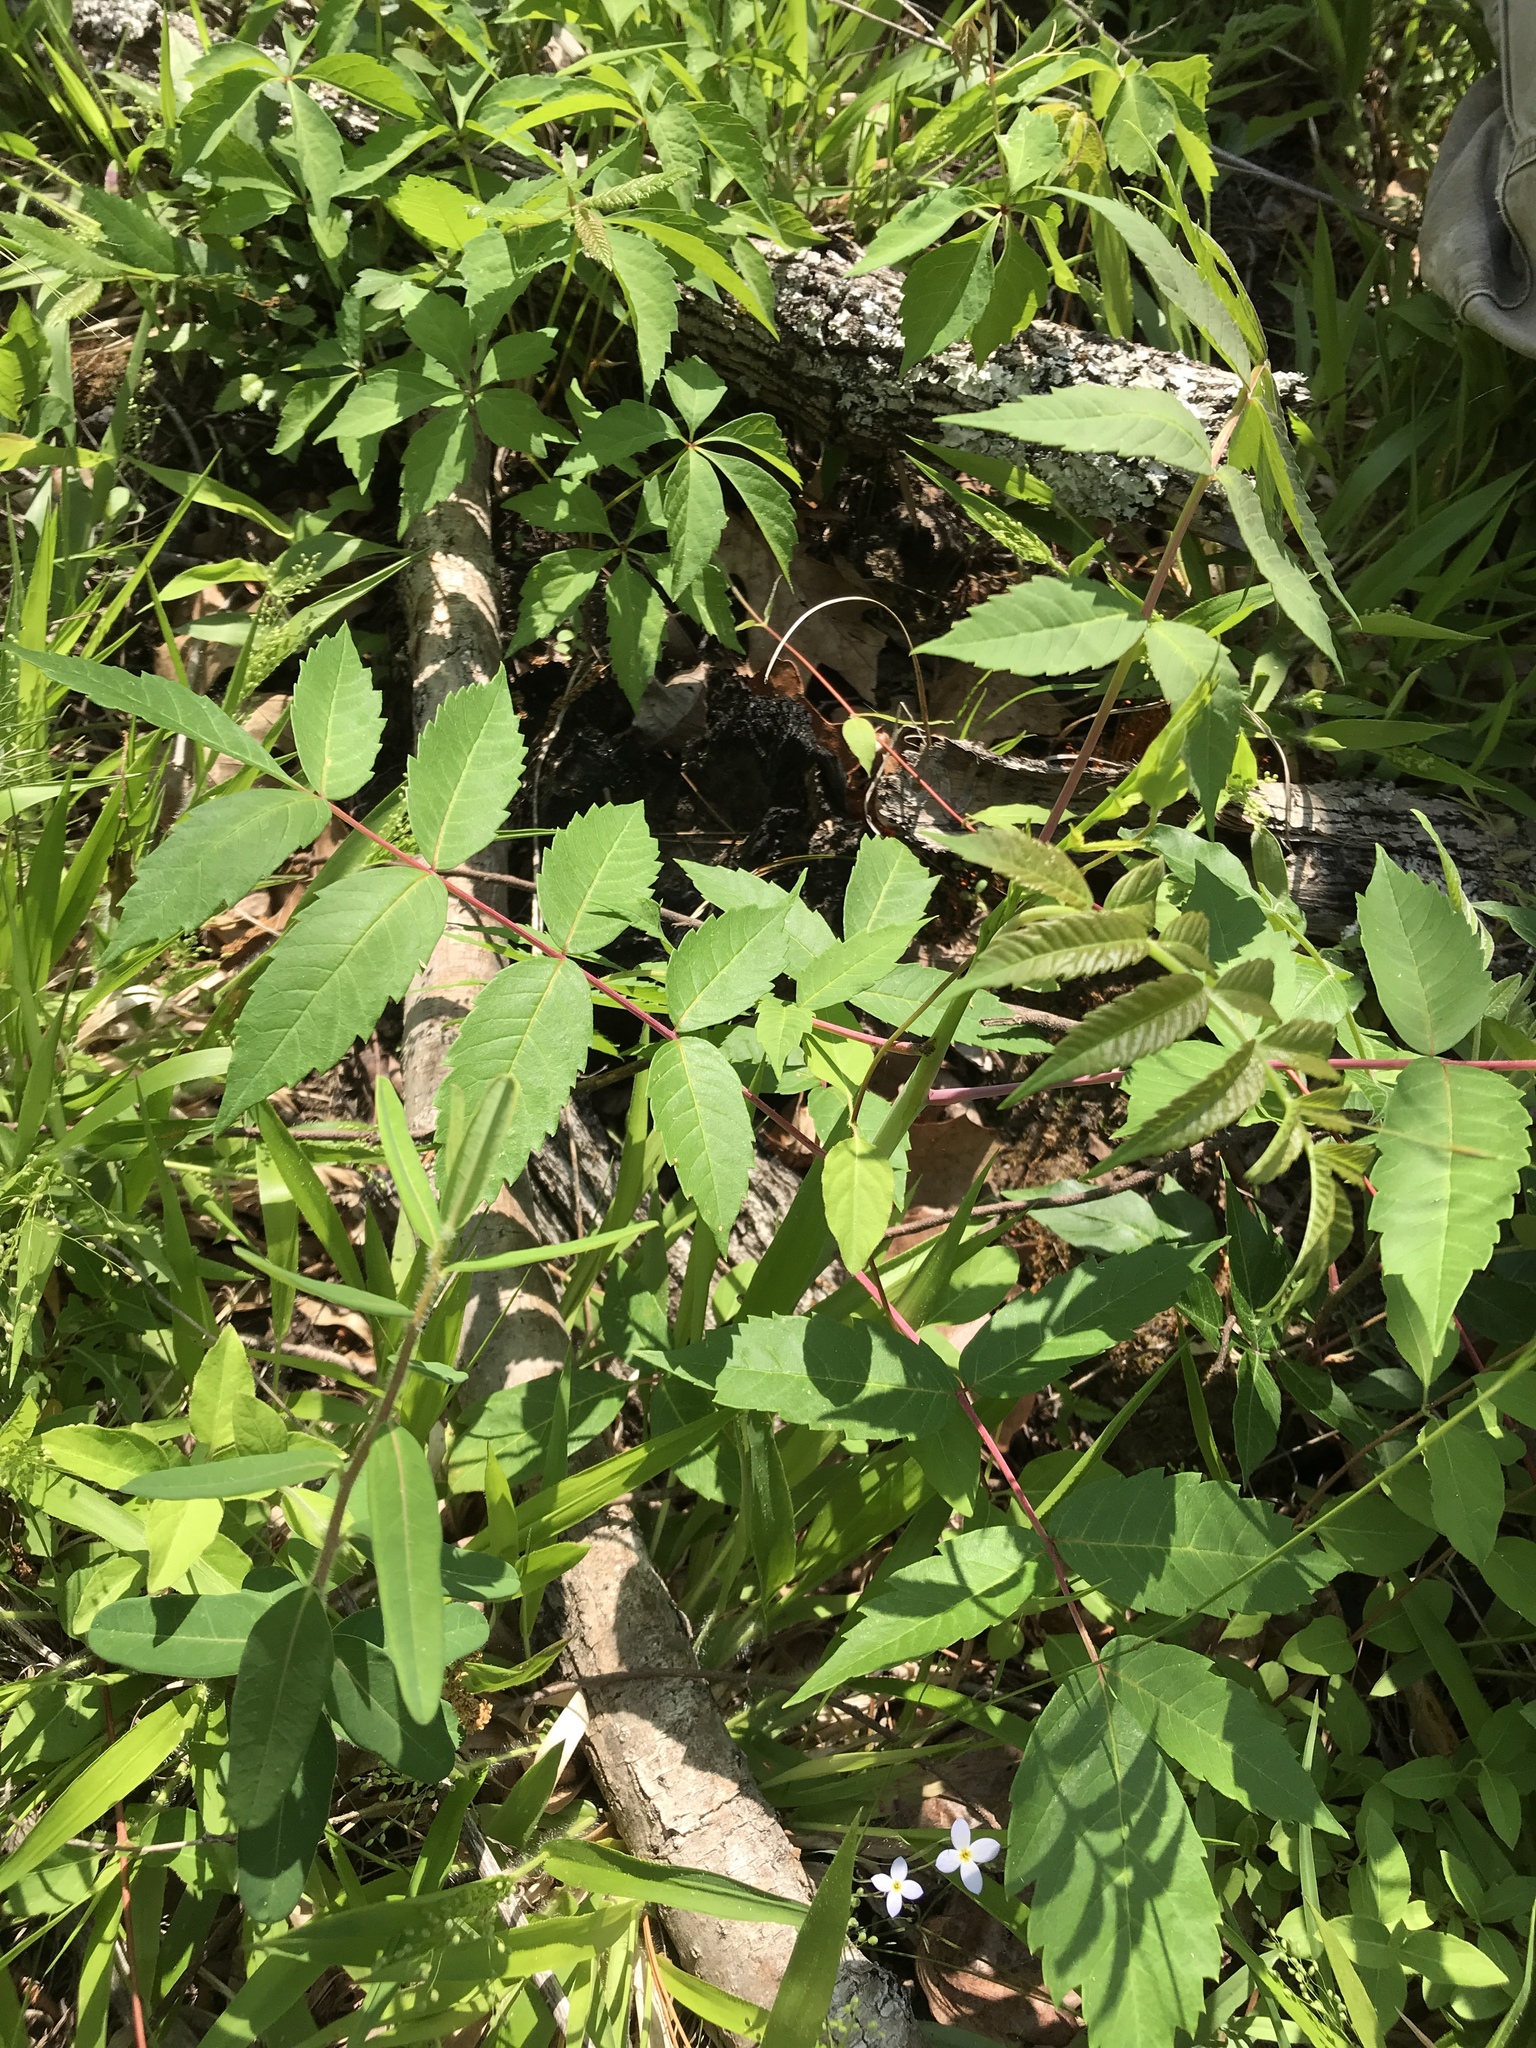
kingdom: Plantae
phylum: Tracheophyta
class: Magnoliopsida
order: Sapindales
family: Anacardiaceae
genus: Rhus
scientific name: Rhus glabra
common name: Scarlet sumac
